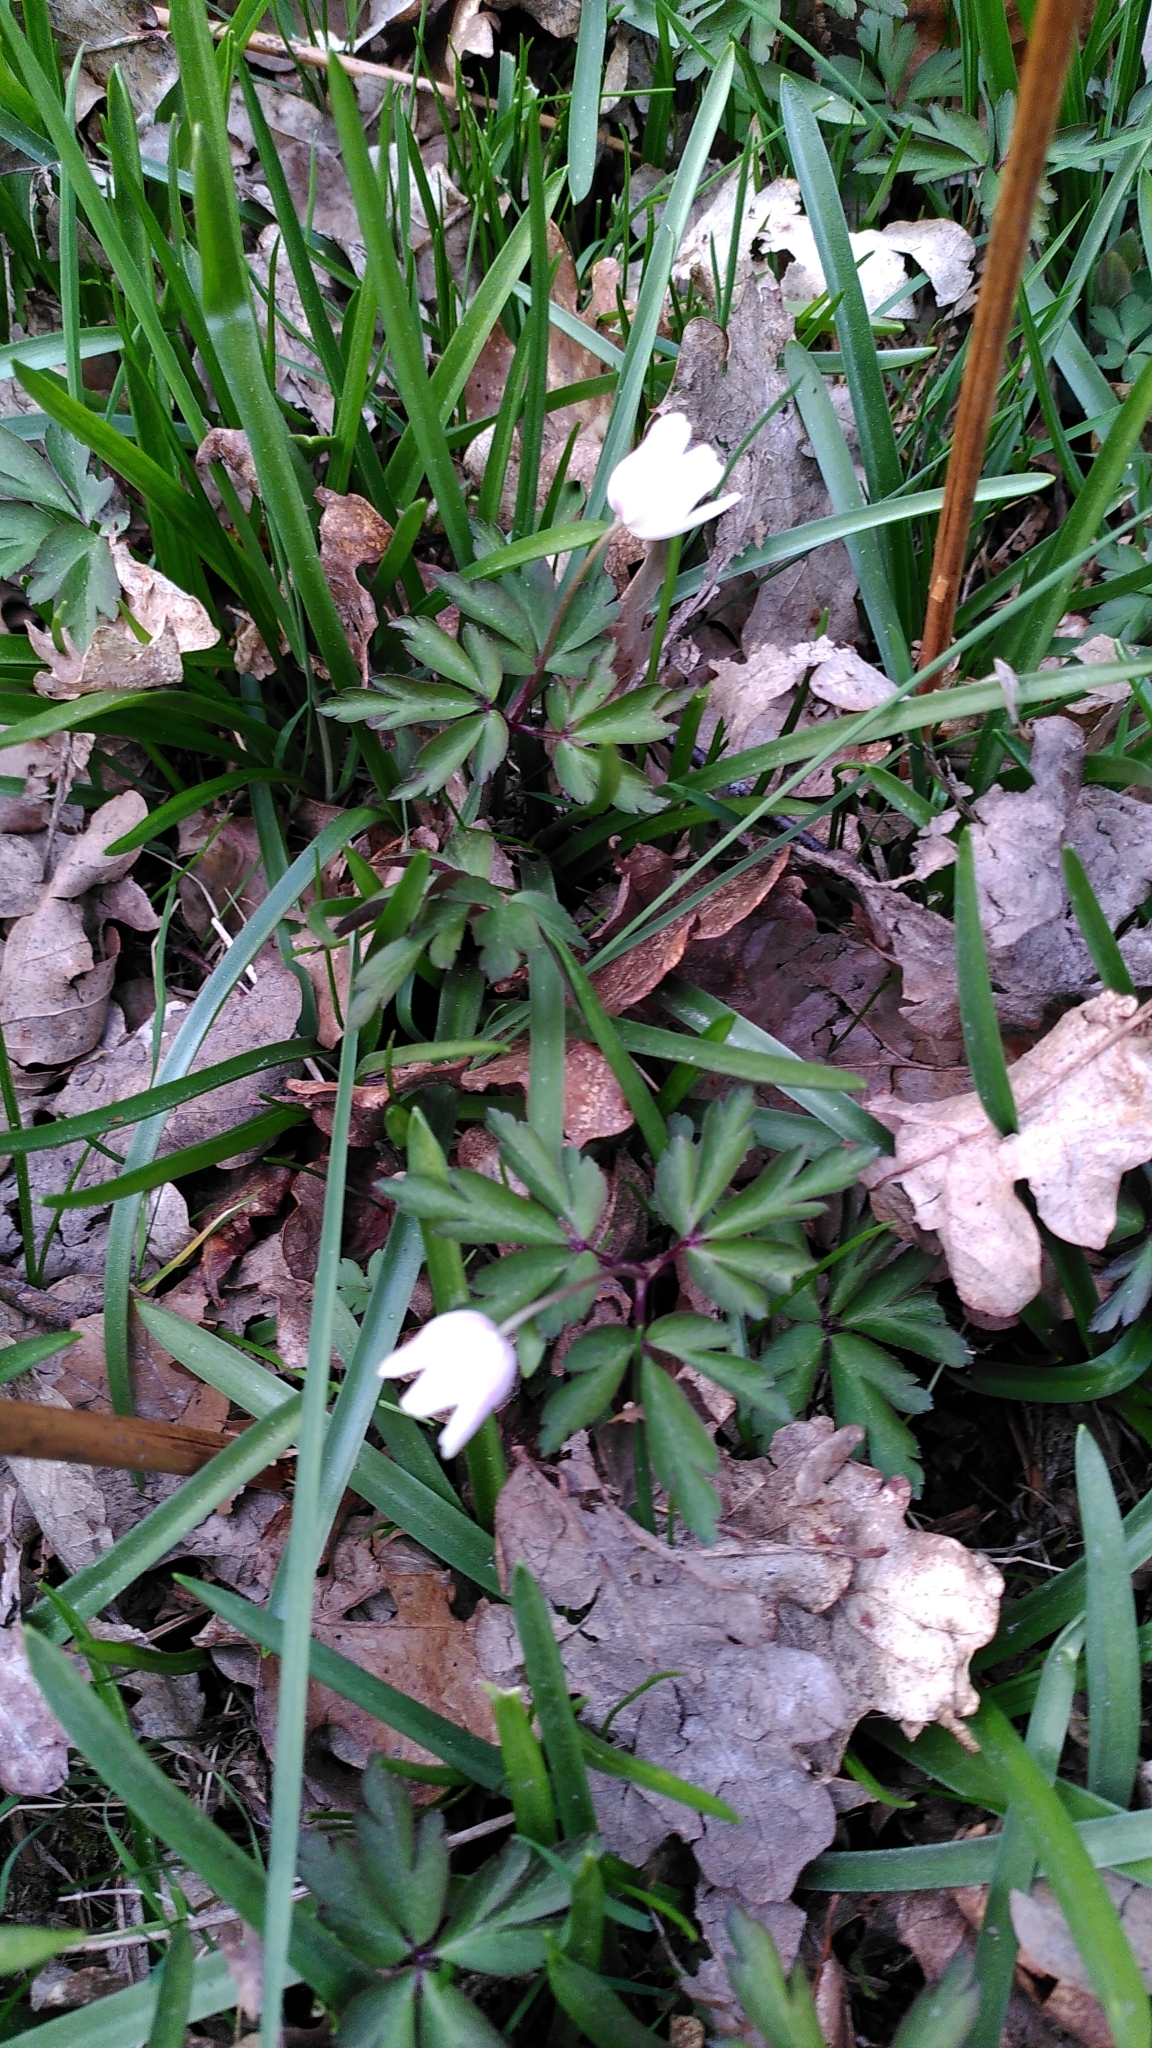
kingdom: Plantae
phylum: Tracheophyta
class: Magnoliopsida
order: Ranunculales
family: Ranunculaceae
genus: Anemone
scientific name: Anemone nemorosa
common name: Wood anemone
